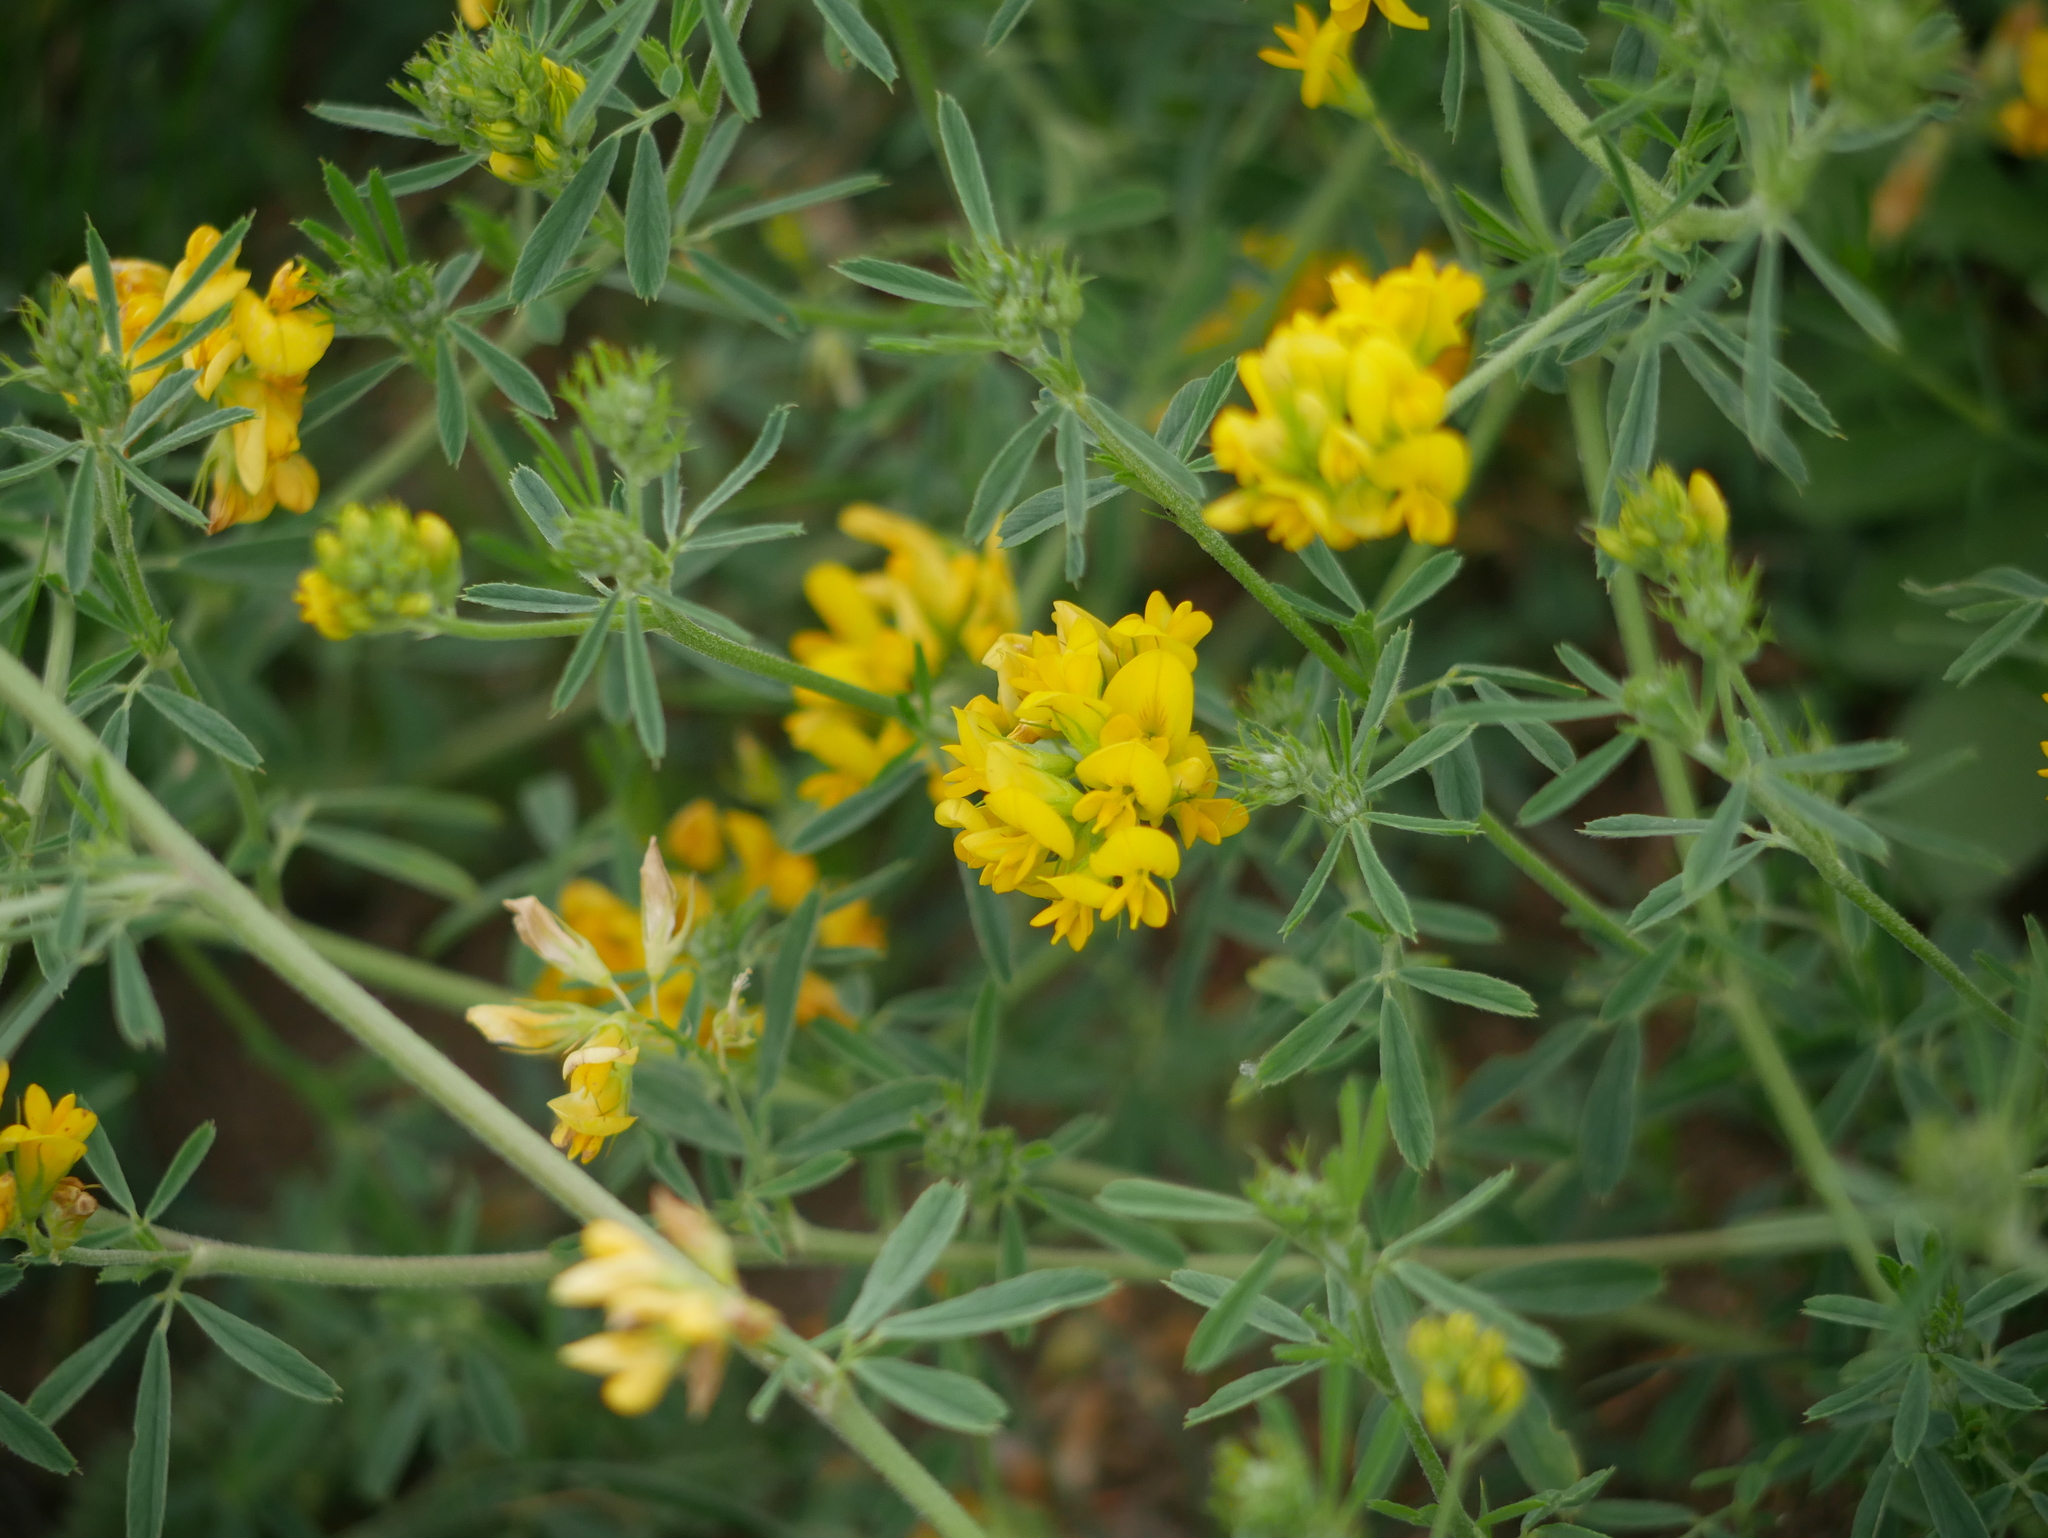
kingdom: Plantae
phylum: Tracheophyta
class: Magnoliopsida
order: Fabales
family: Fabaceae
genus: Medicago
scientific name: Medicago falcata
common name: Sickle medick
